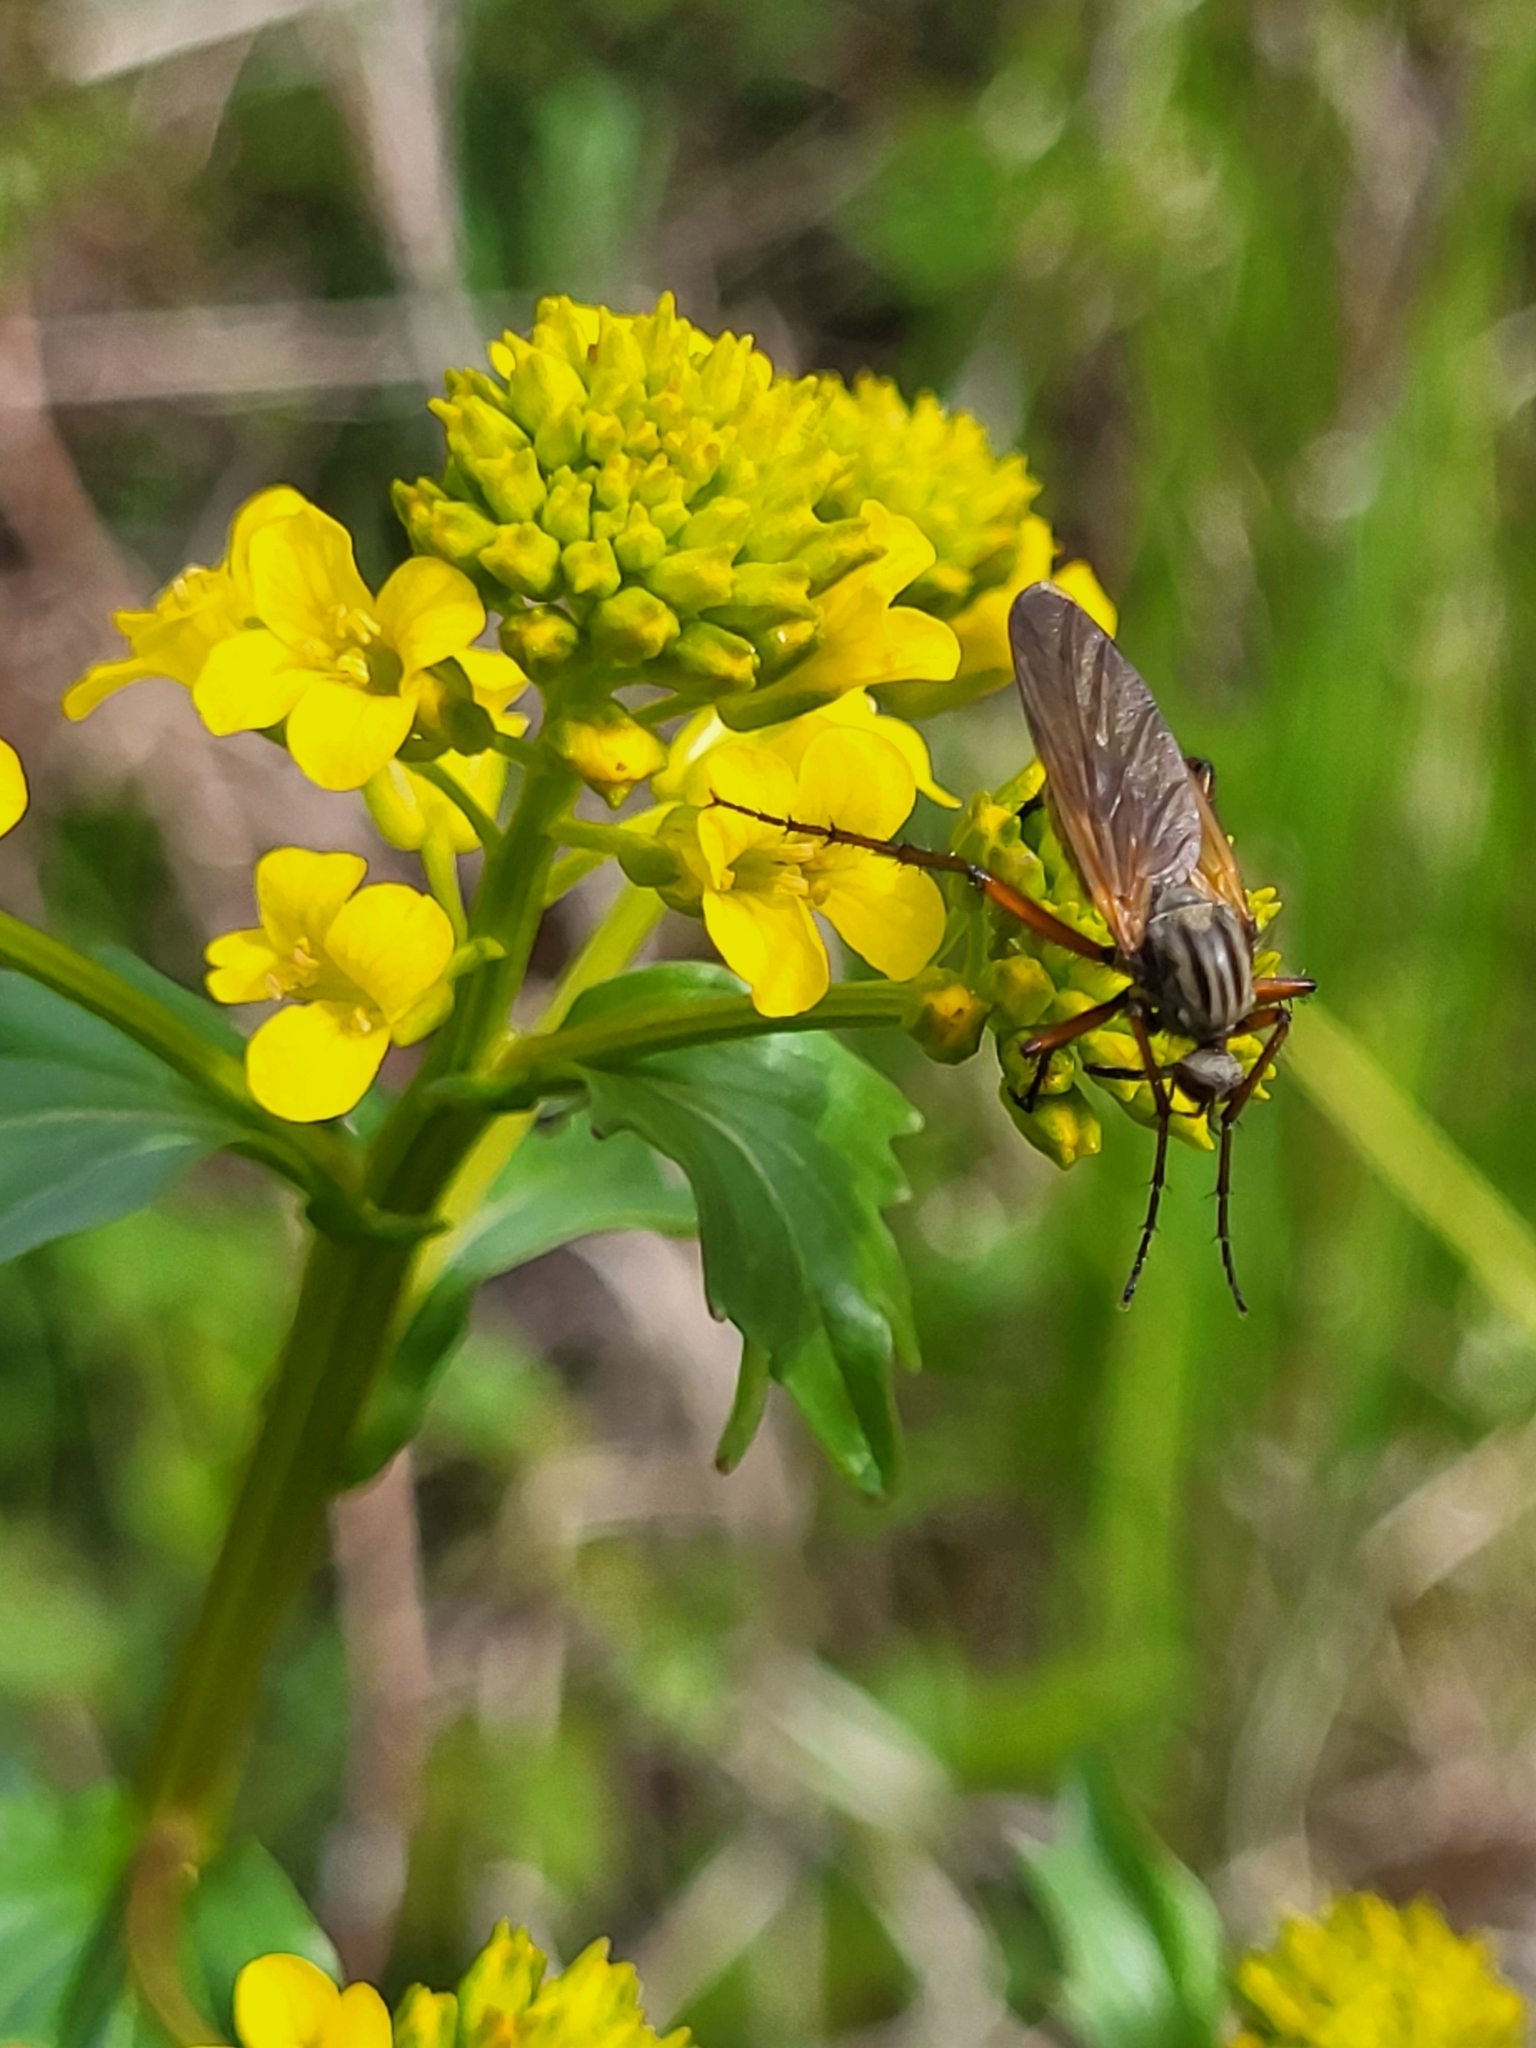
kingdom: Animalia
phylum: Arthropoda
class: Insecta
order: Diptera
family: Empididae
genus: Empis
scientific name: Empis tessellata
